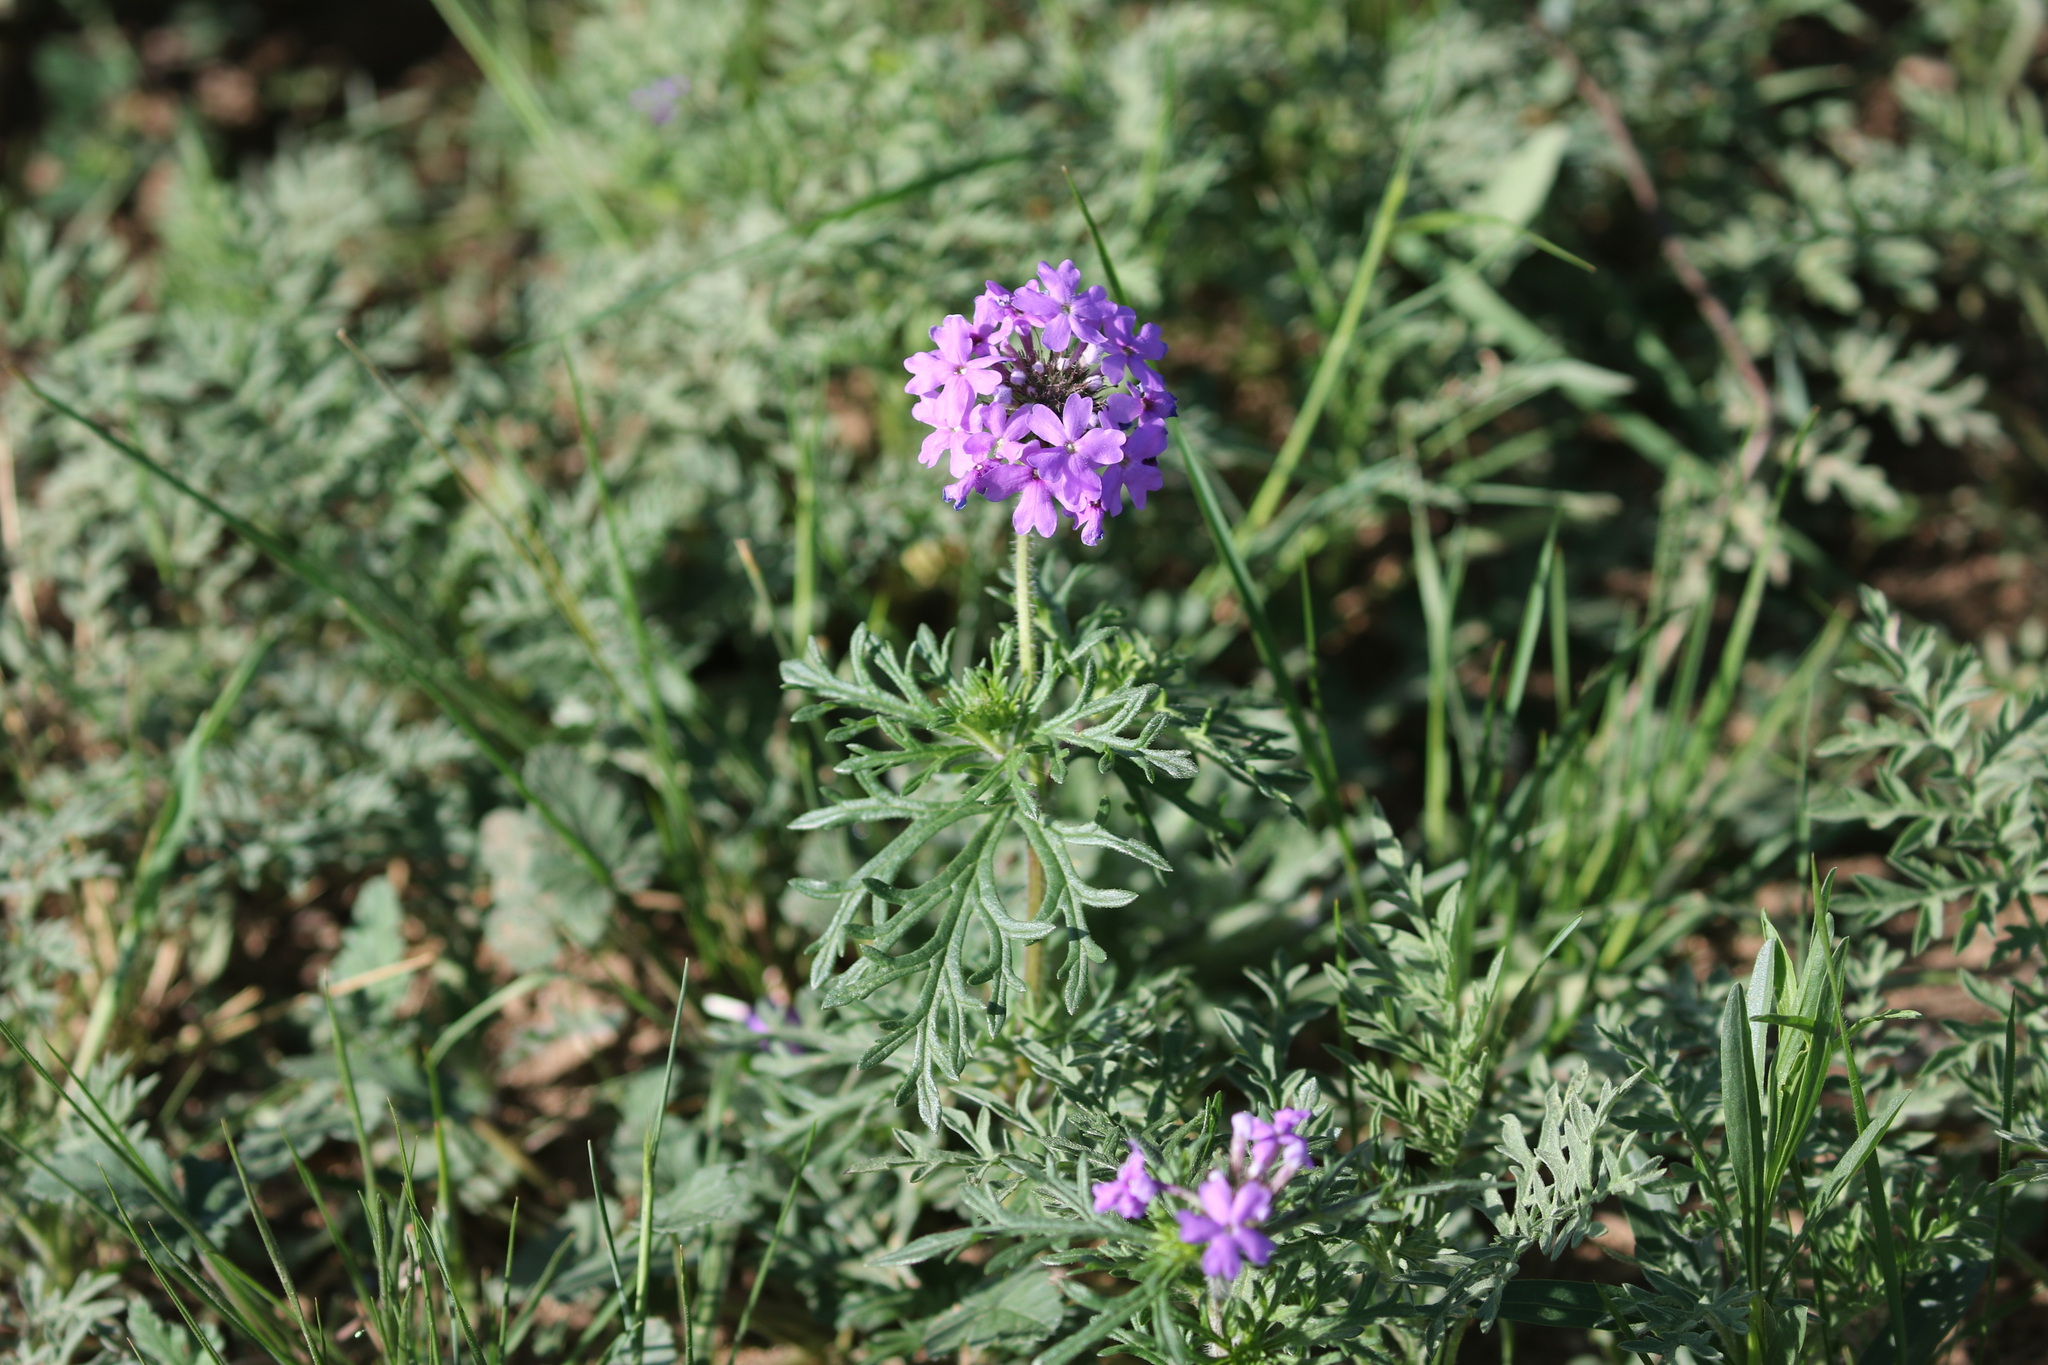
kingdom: Plantae
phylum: Tracheophyta
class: Magnoliopsida
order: Lamiales
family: Verbenaceae
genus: Verbena
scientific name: Verbena bipinnatifida
